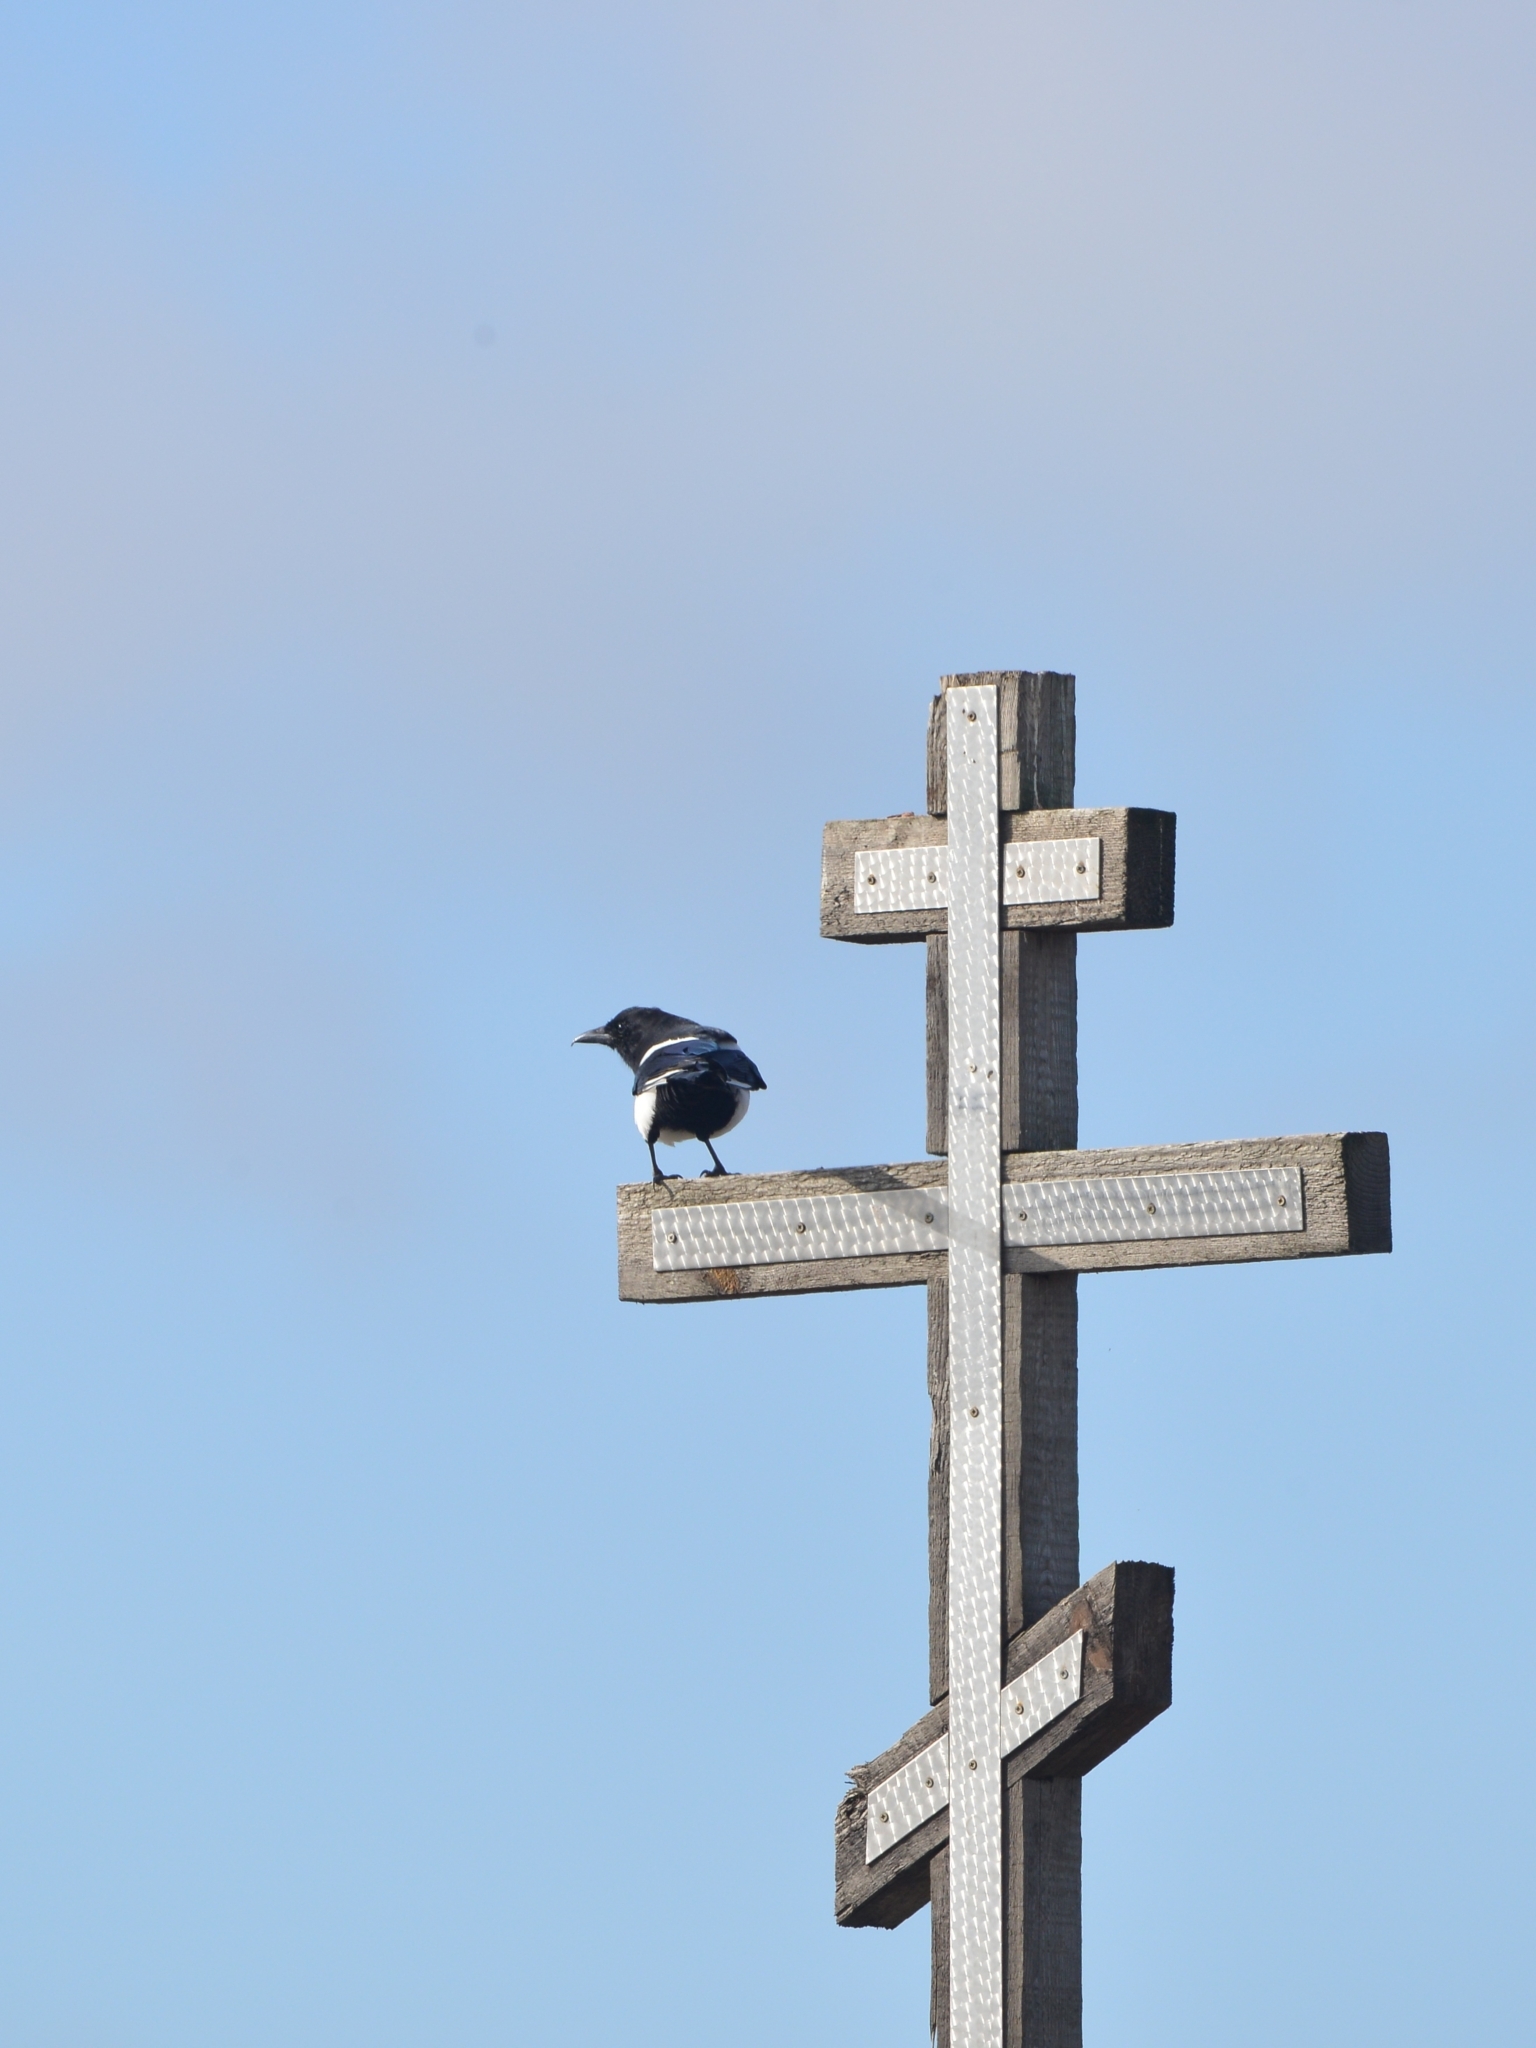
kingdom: Animalia
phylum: Chordata
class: Aves
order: Passeriformes
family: Corvidae
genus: Pica
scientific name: Pica pica
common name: Eurasian magpie
